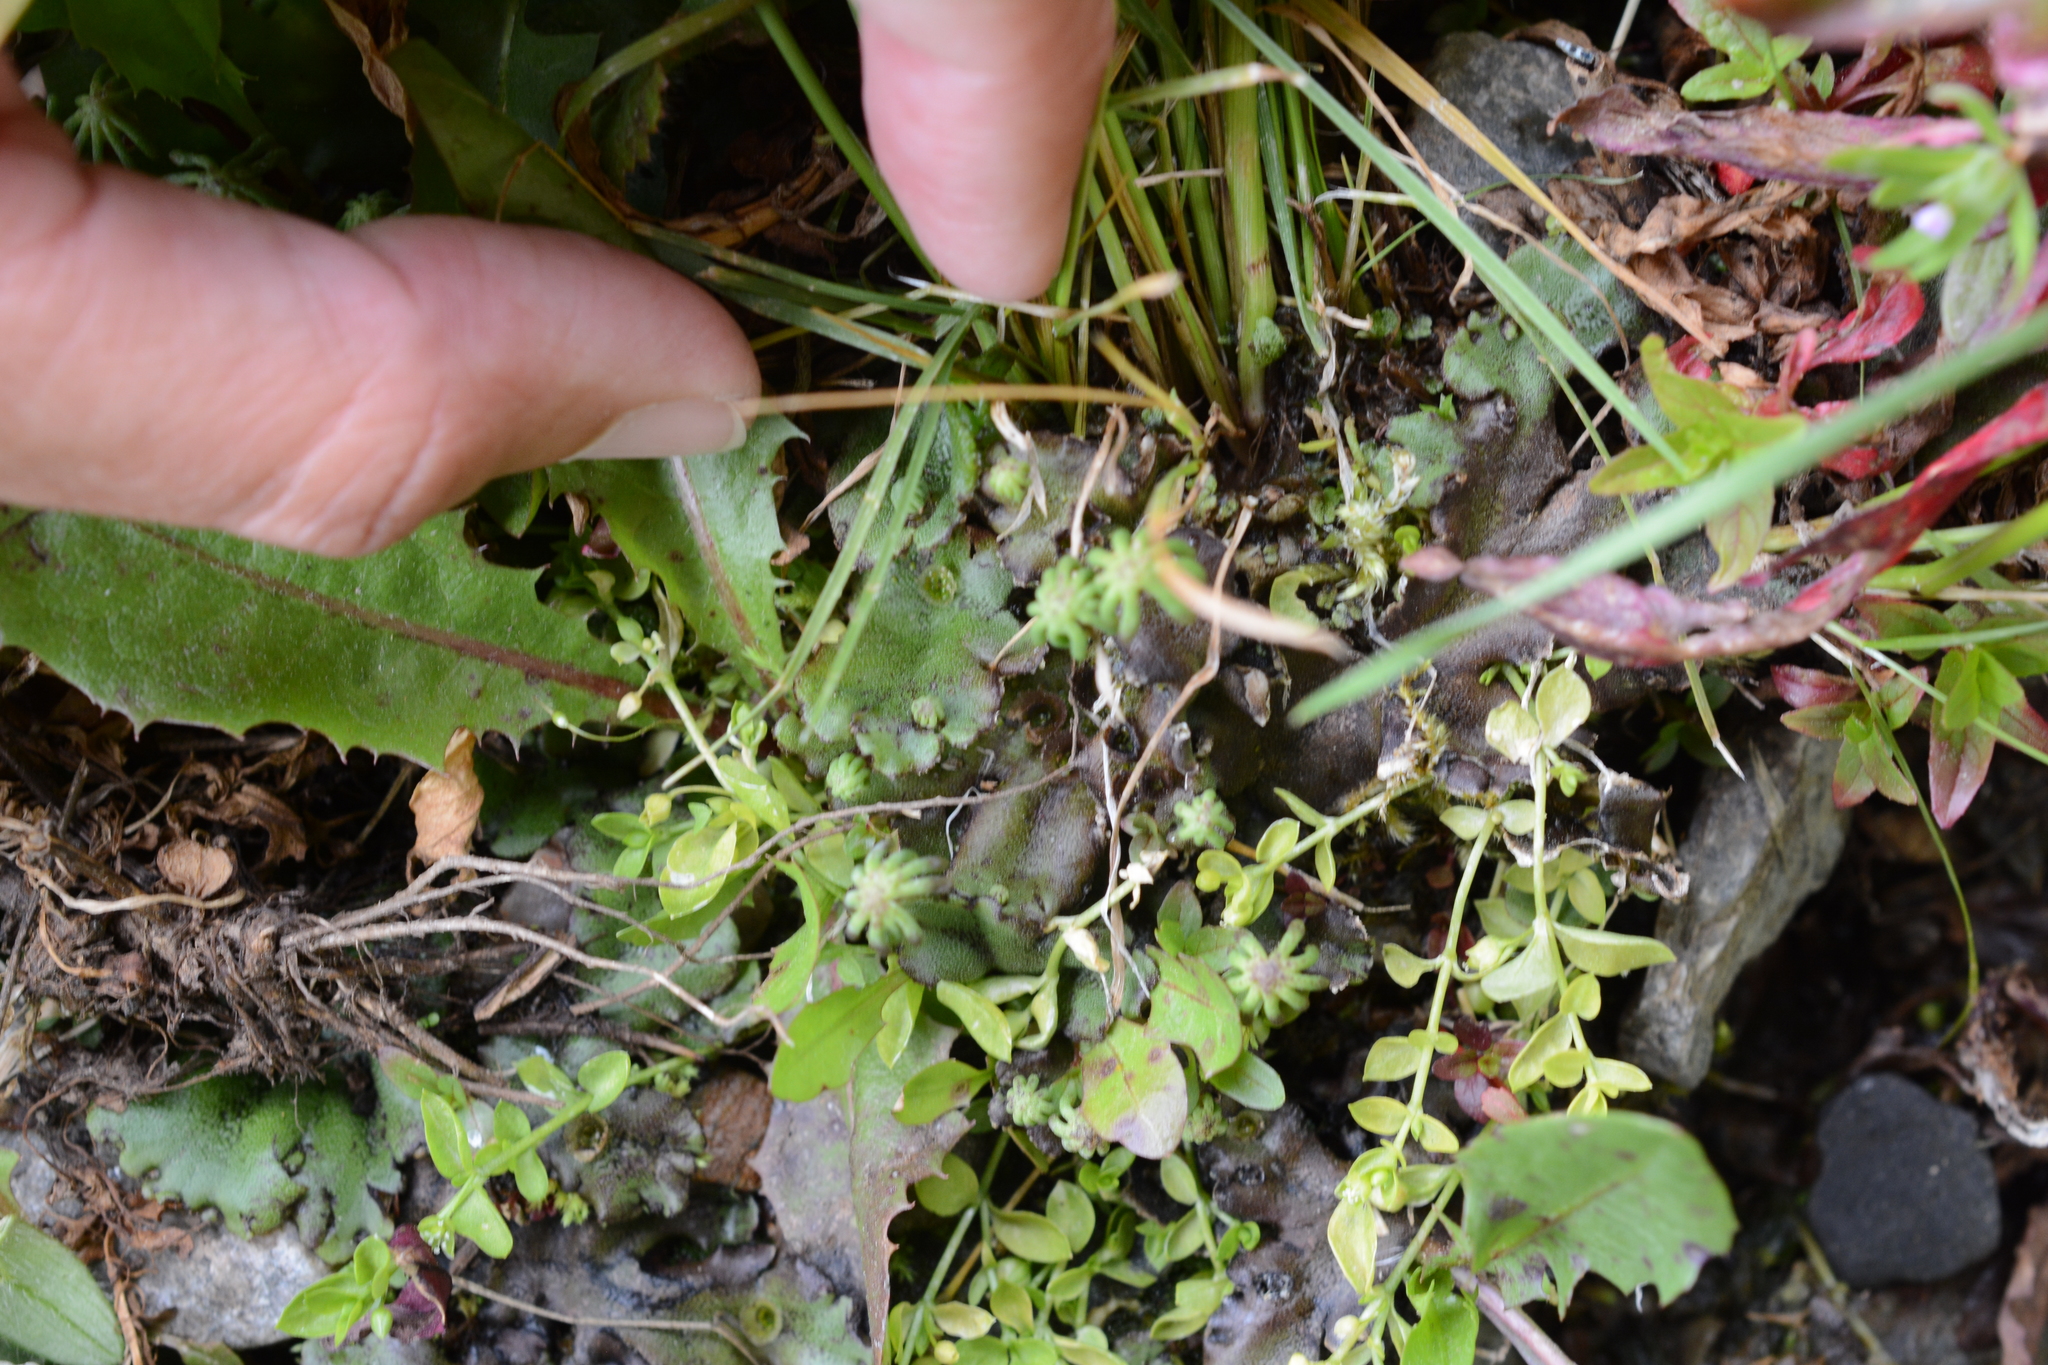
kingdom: Plantae
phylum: Marchantiophyta
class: Marchantiopsida
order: Marchantiales
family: Marchantiaceae
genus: Marchantia
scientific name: Marchantia polymorpha
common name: Common liverwort
